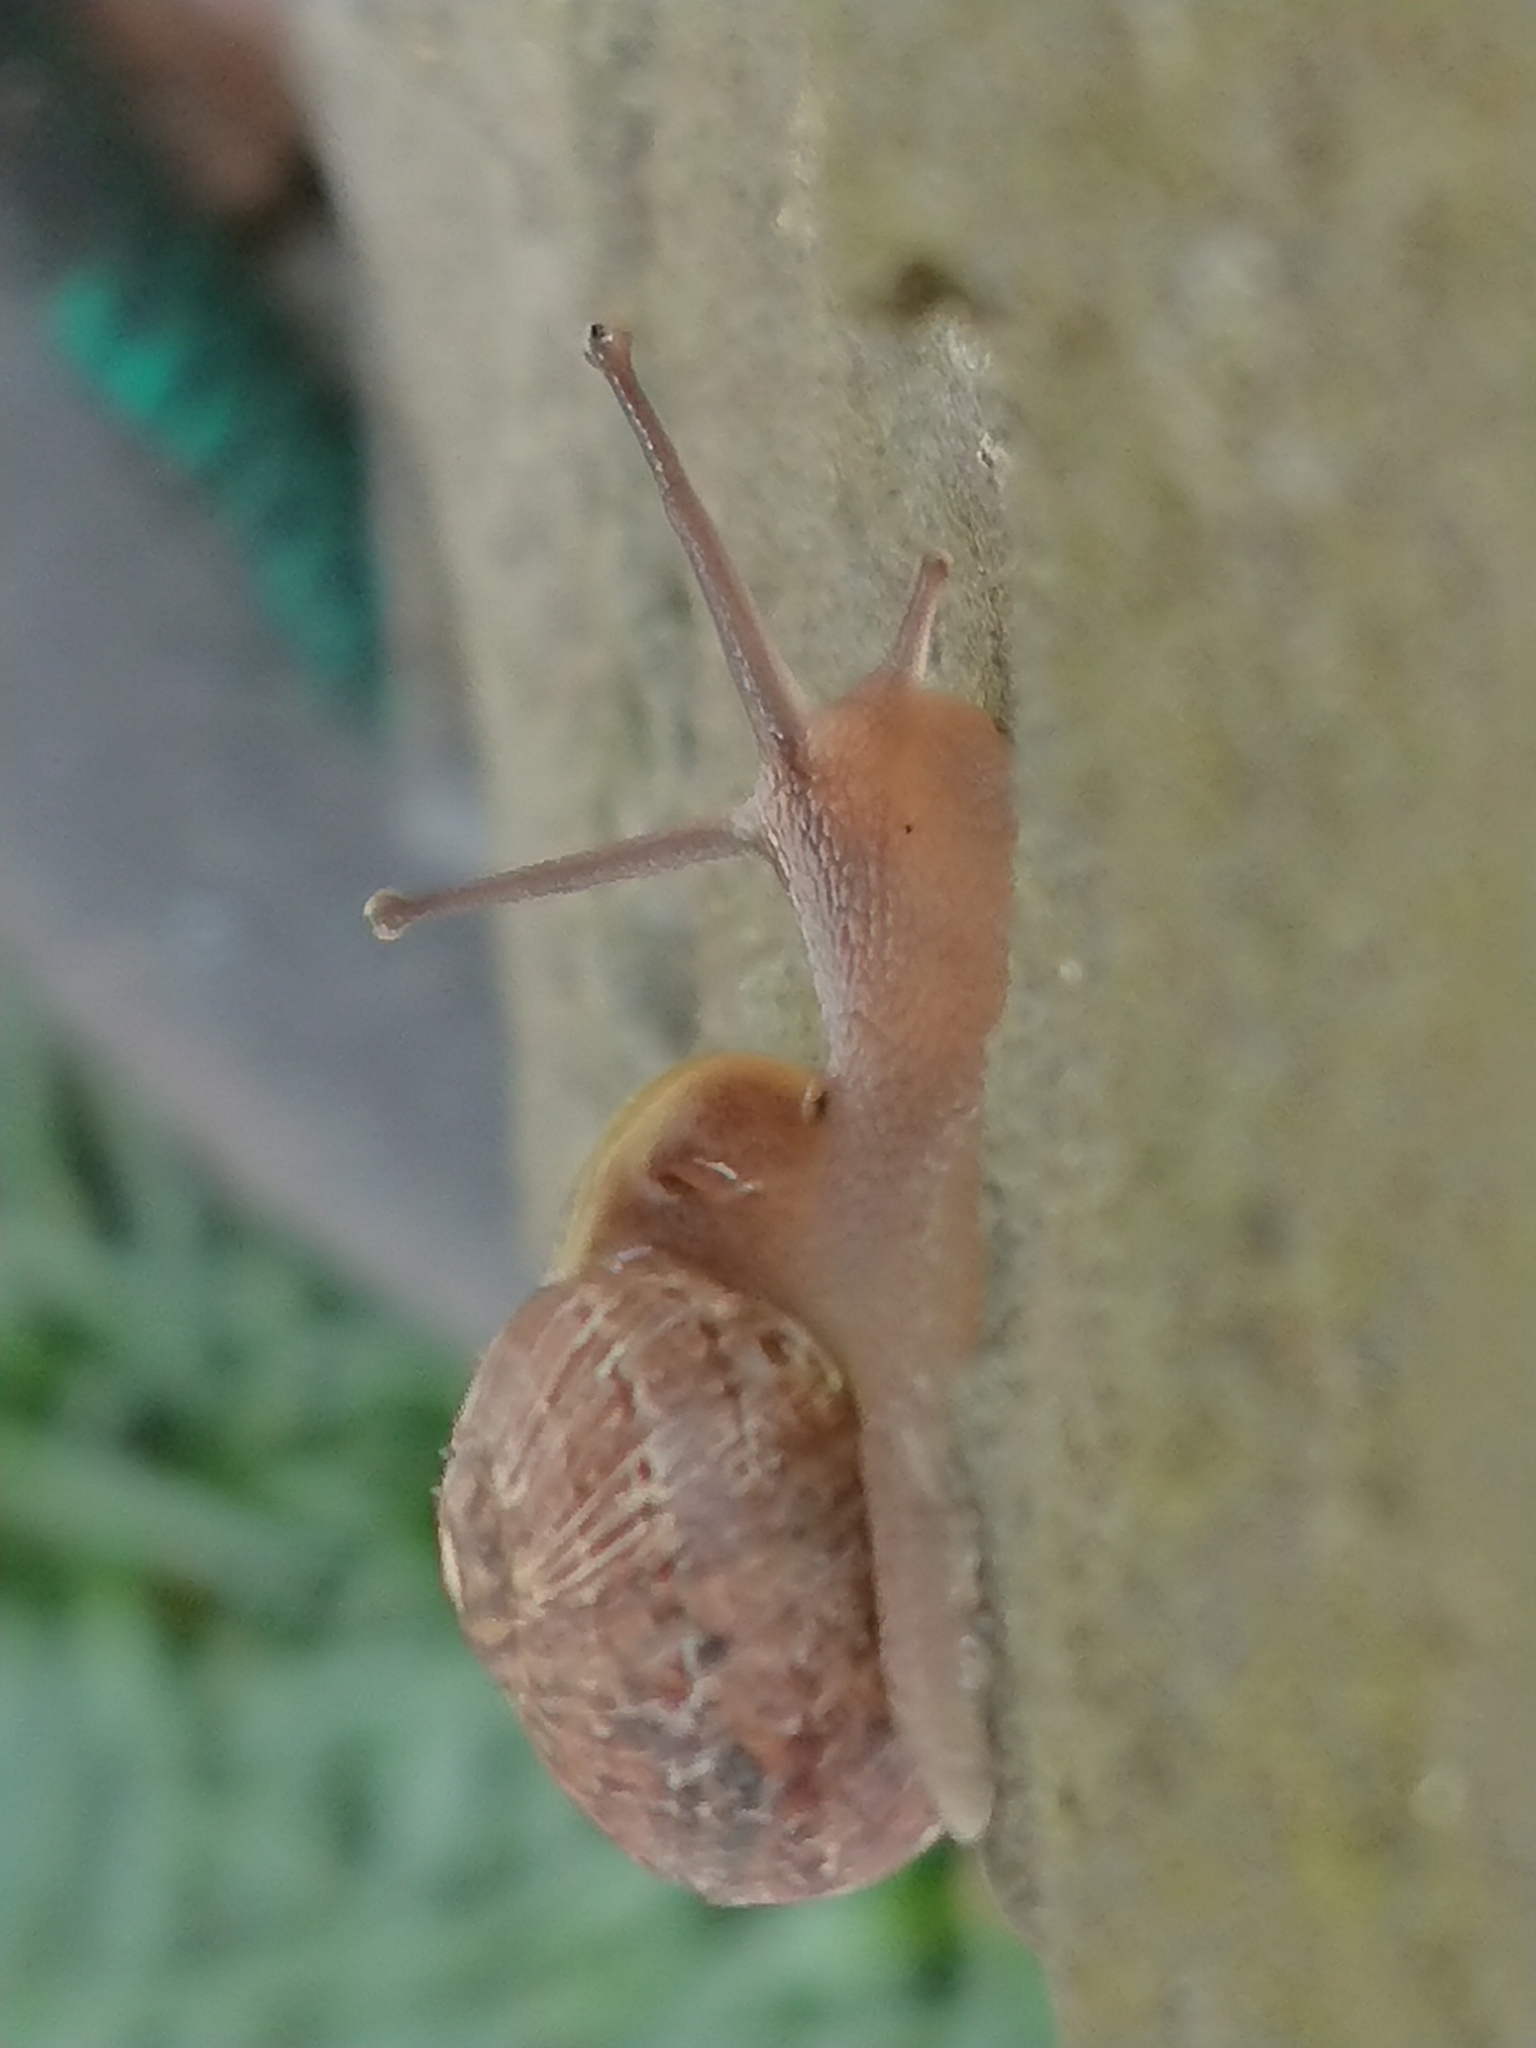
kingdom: Animalia
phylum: Mollusca
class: Gastropoda
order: Stylommatophora
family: Helicidae
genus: Cornu
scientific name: Cornu aspersum
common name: Brown garden snail
